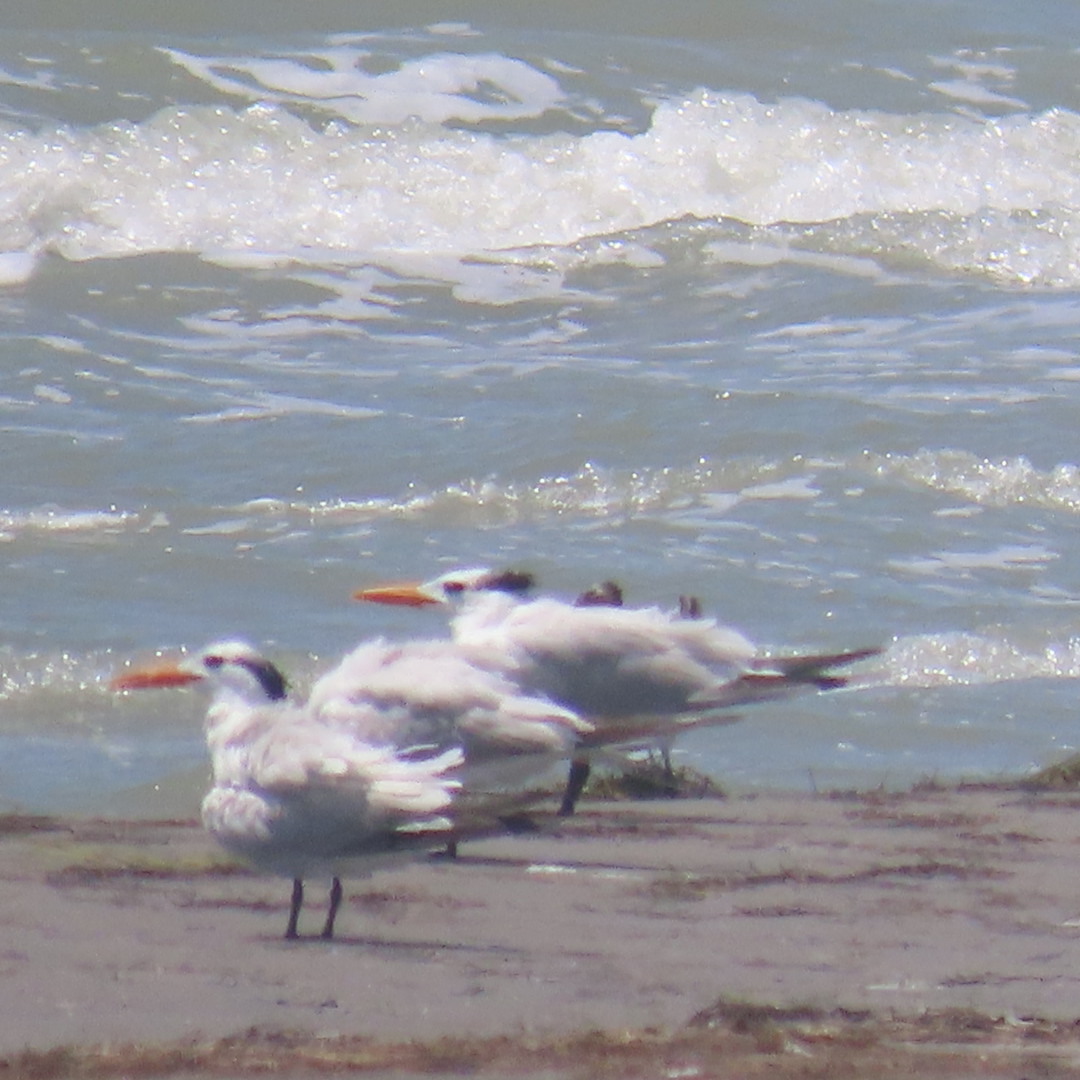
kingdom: Animalia
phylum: Chordata
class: Aves
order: Charadriiformes
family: Laridae
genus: Thalasseus
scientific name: Thalasseus maximus
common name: Royal tern
